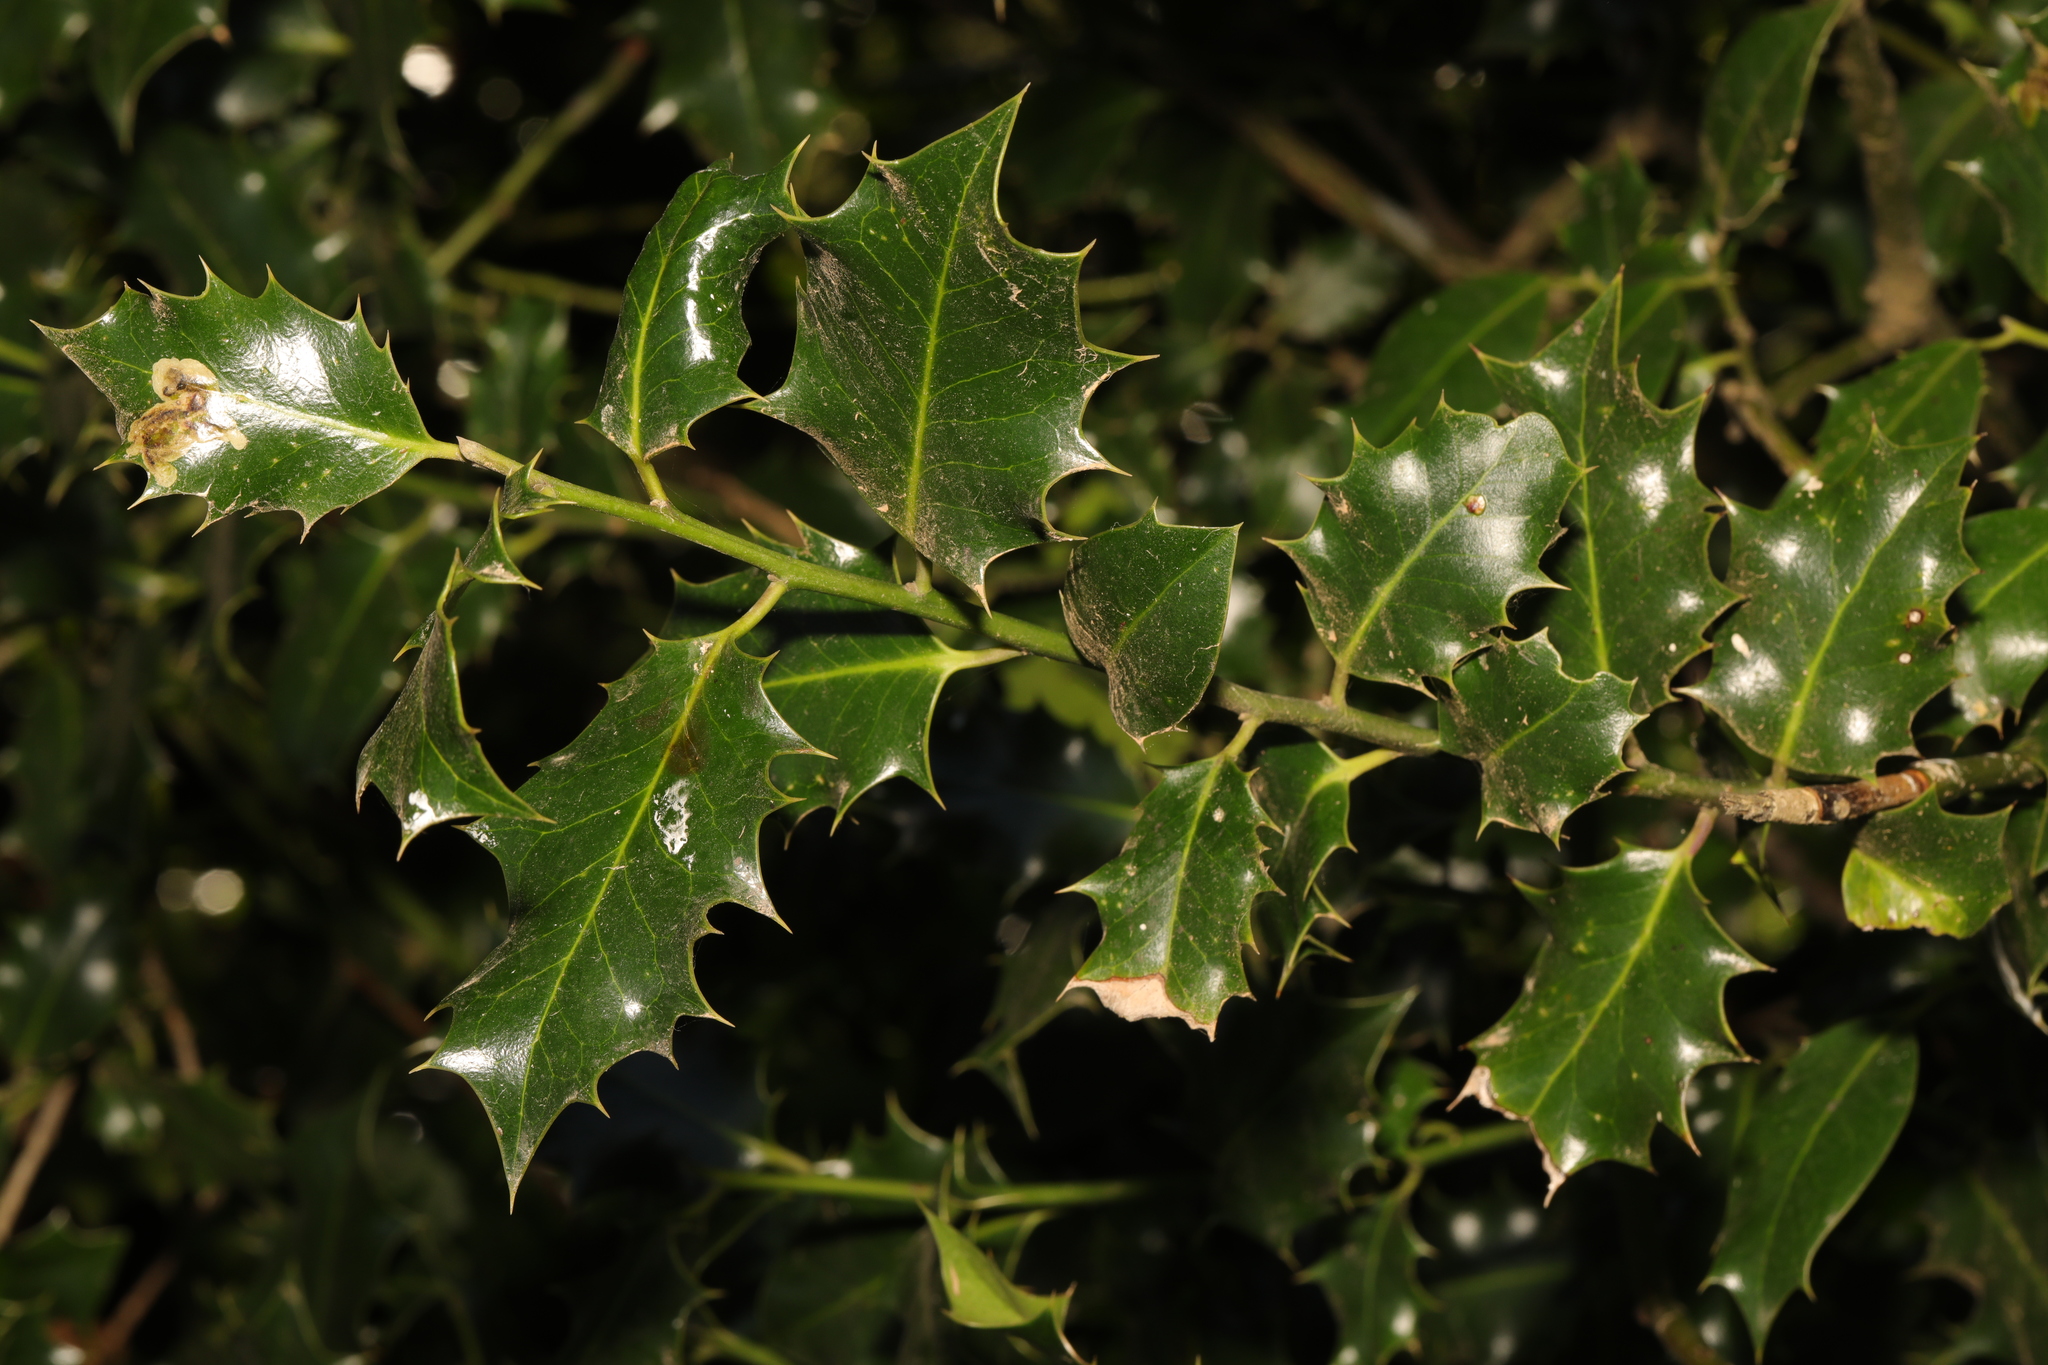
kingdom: Plantae
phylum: Tracheophyta
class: Magnoliopsida
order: Aquifoliales
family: Aquifoliaceae
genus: Ilex
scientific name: Ilex aquifolium
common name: English holly
